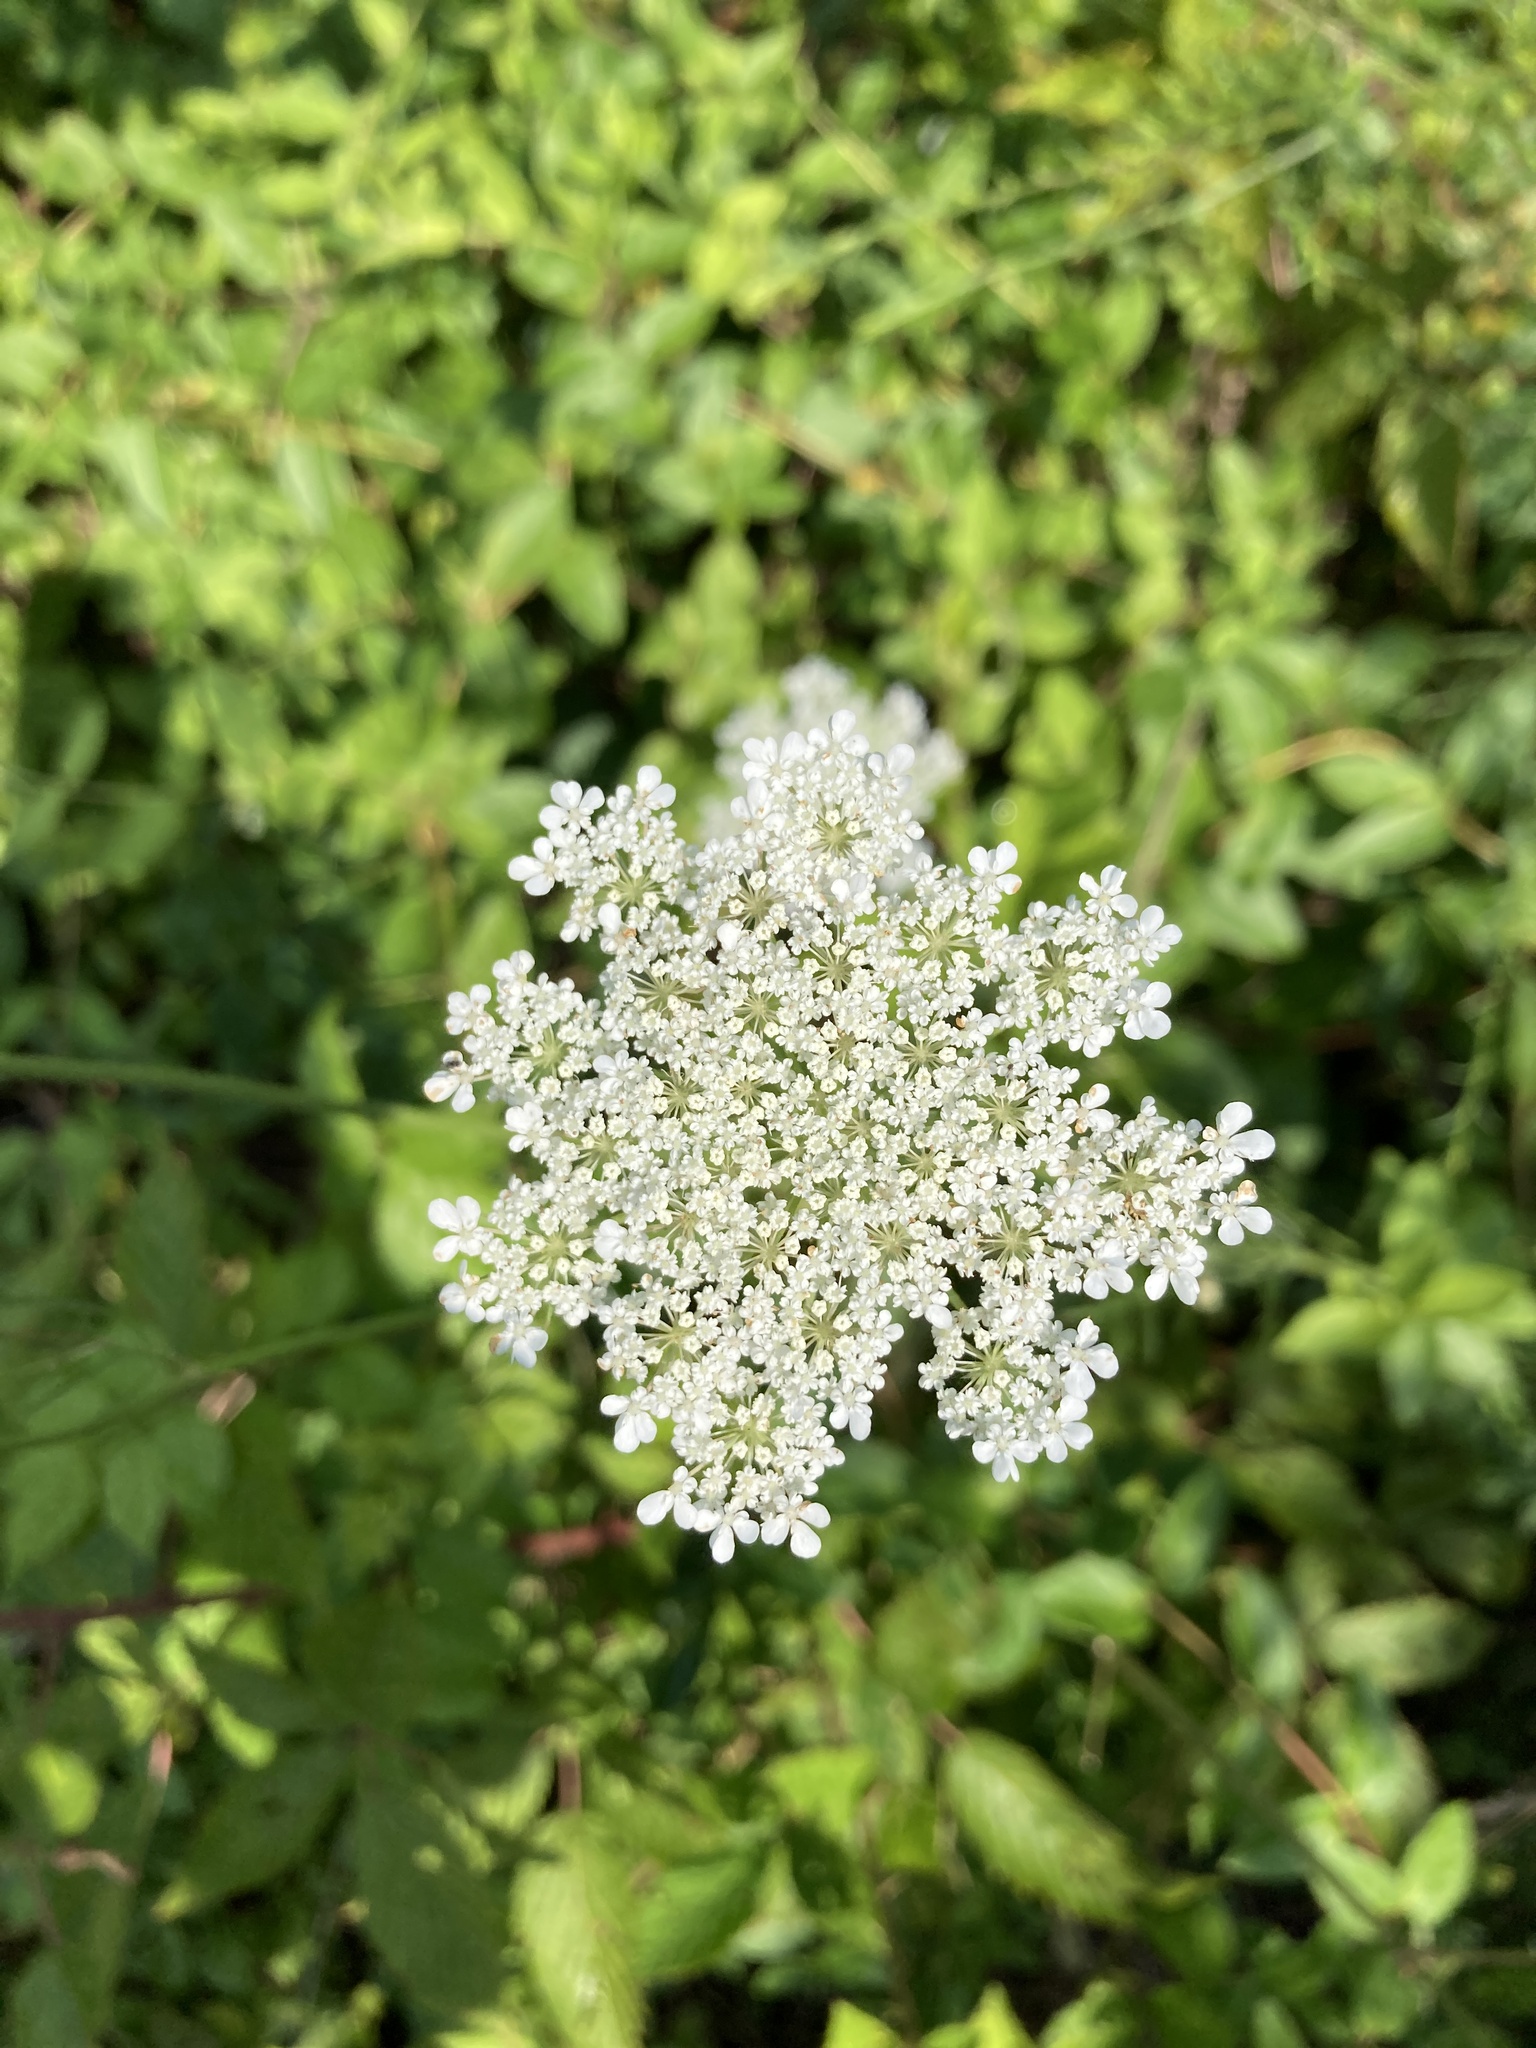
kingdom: Plantae
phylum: Tracheophyta
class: Magnoliopsida
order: Apiales
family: Apiaceae
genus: Daucus
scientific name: Daucus carota
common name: Wild carrot
